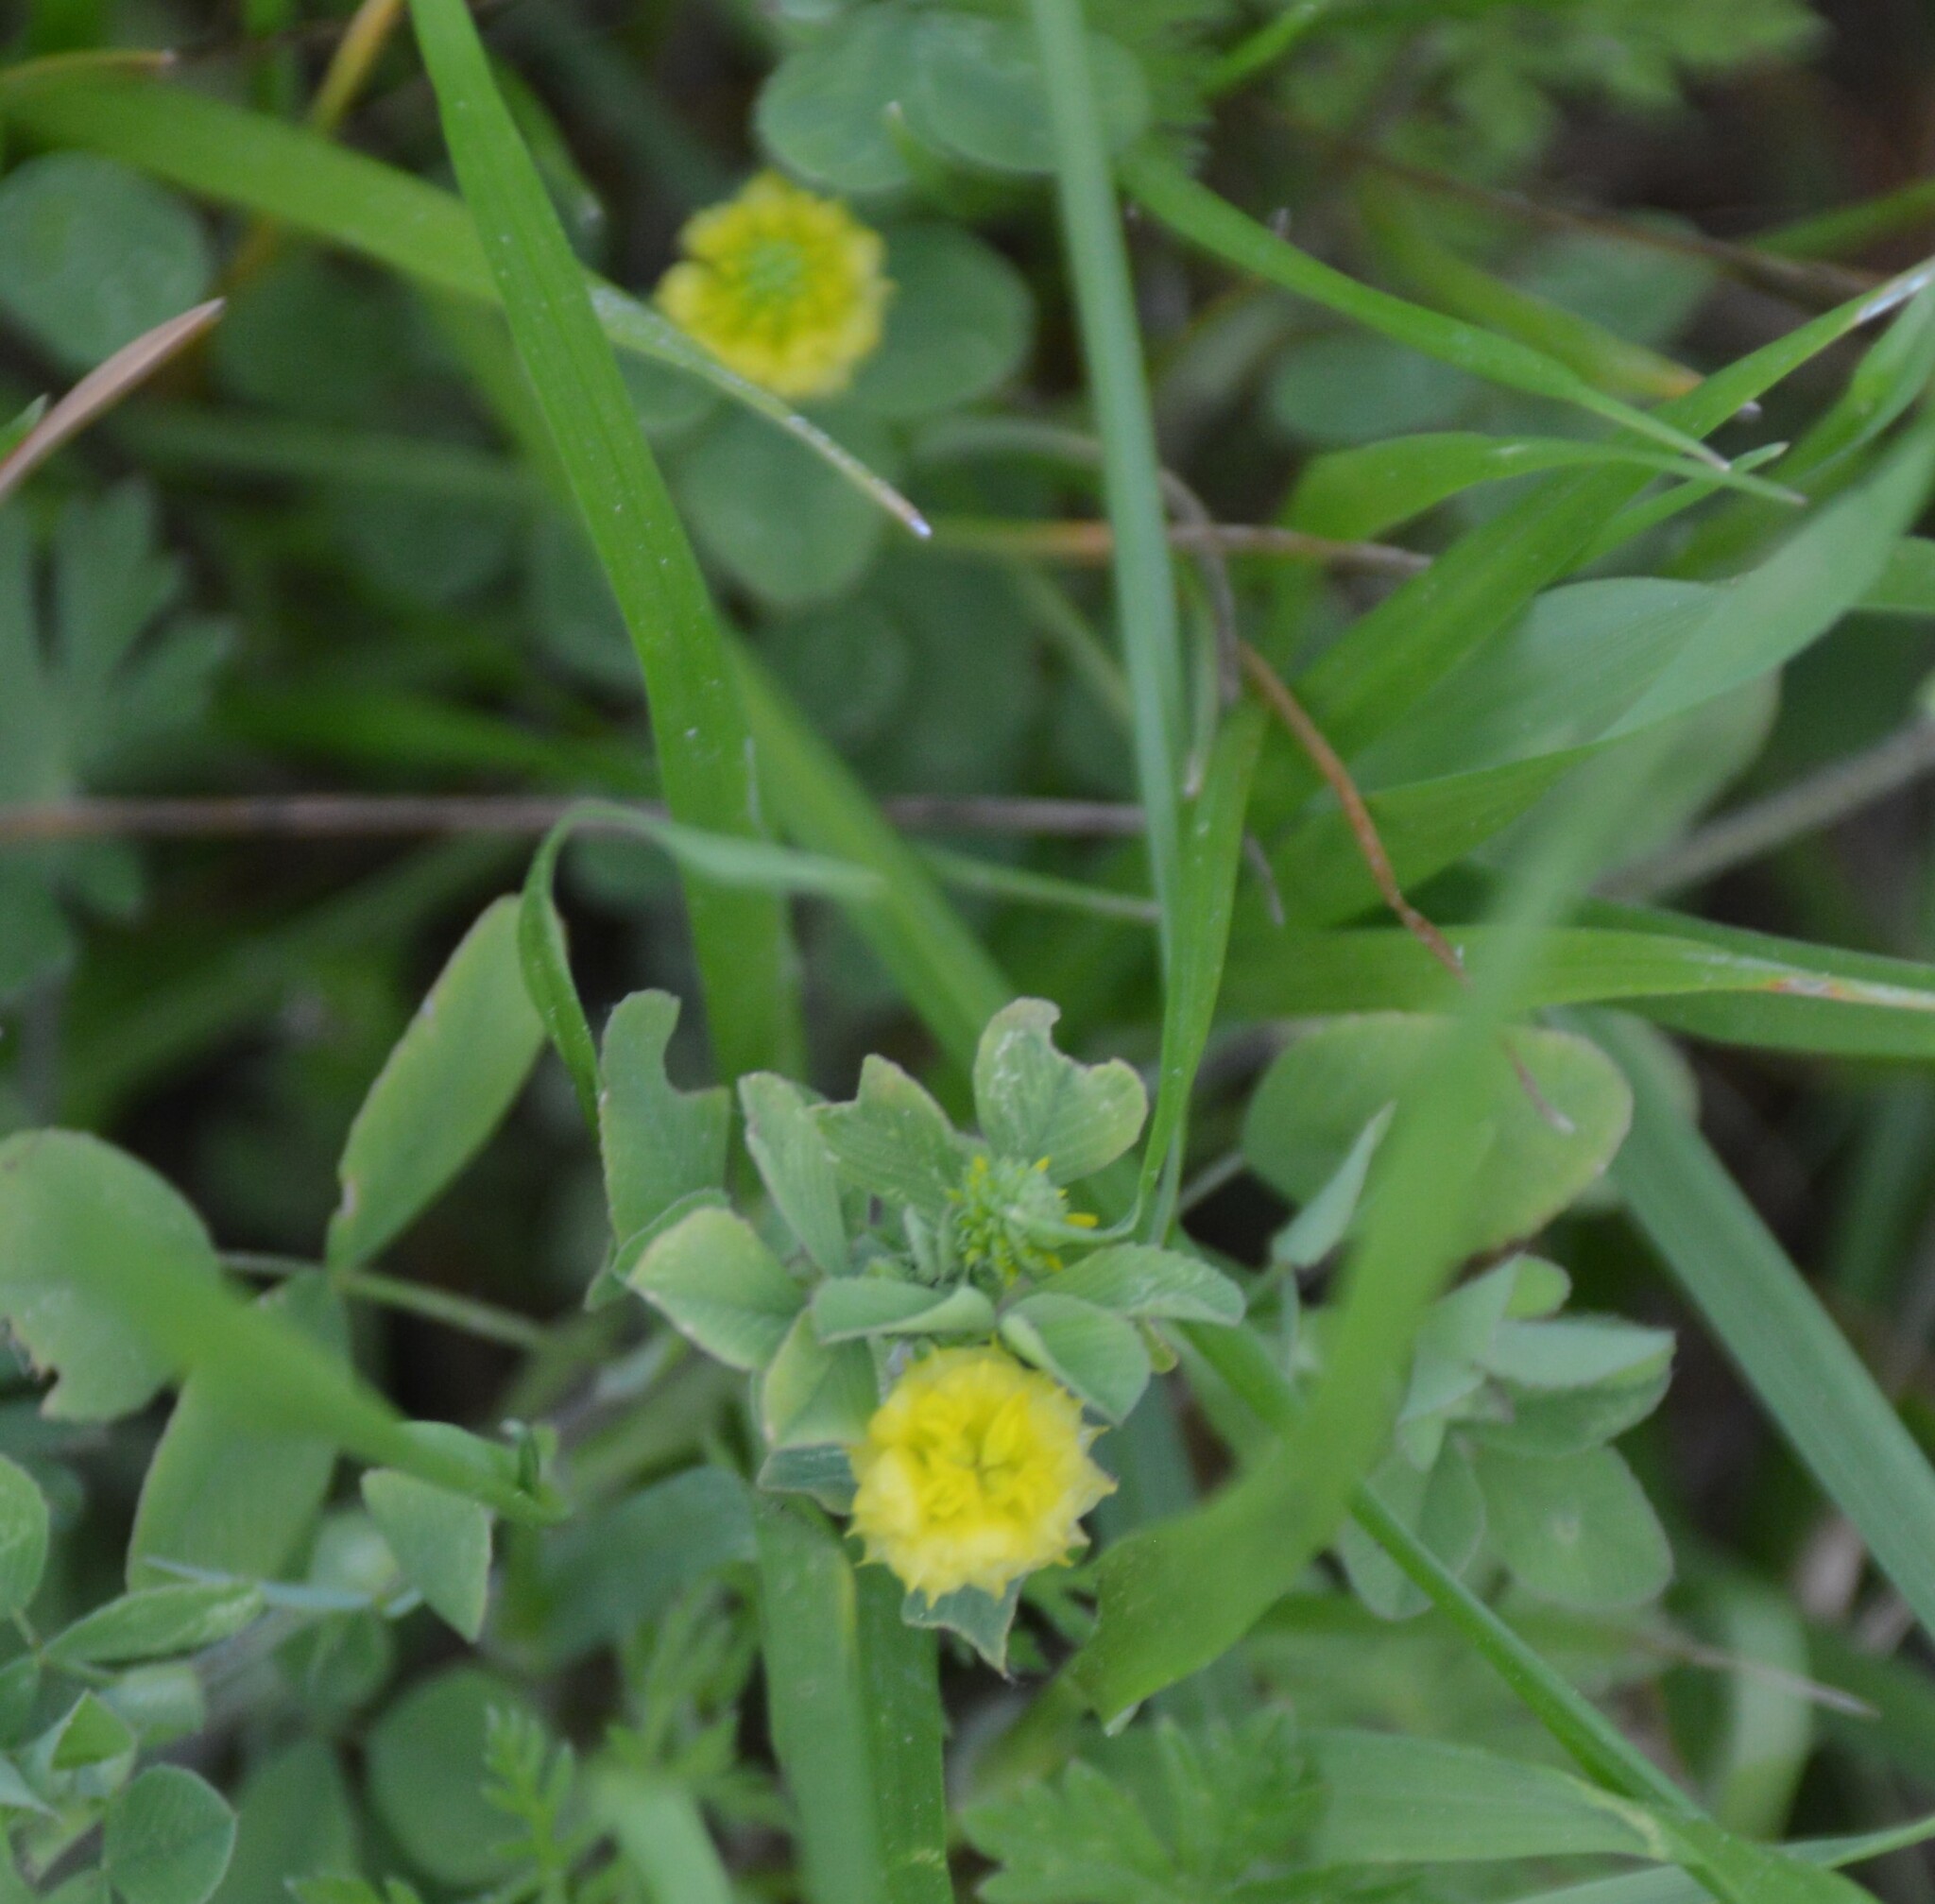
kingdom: Plantae
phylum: Tracheophyta
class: Magnoliopsida
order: Fabales
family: Fabaceae
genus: Trifolium
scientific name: Trifolium campestre
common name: Field clover
